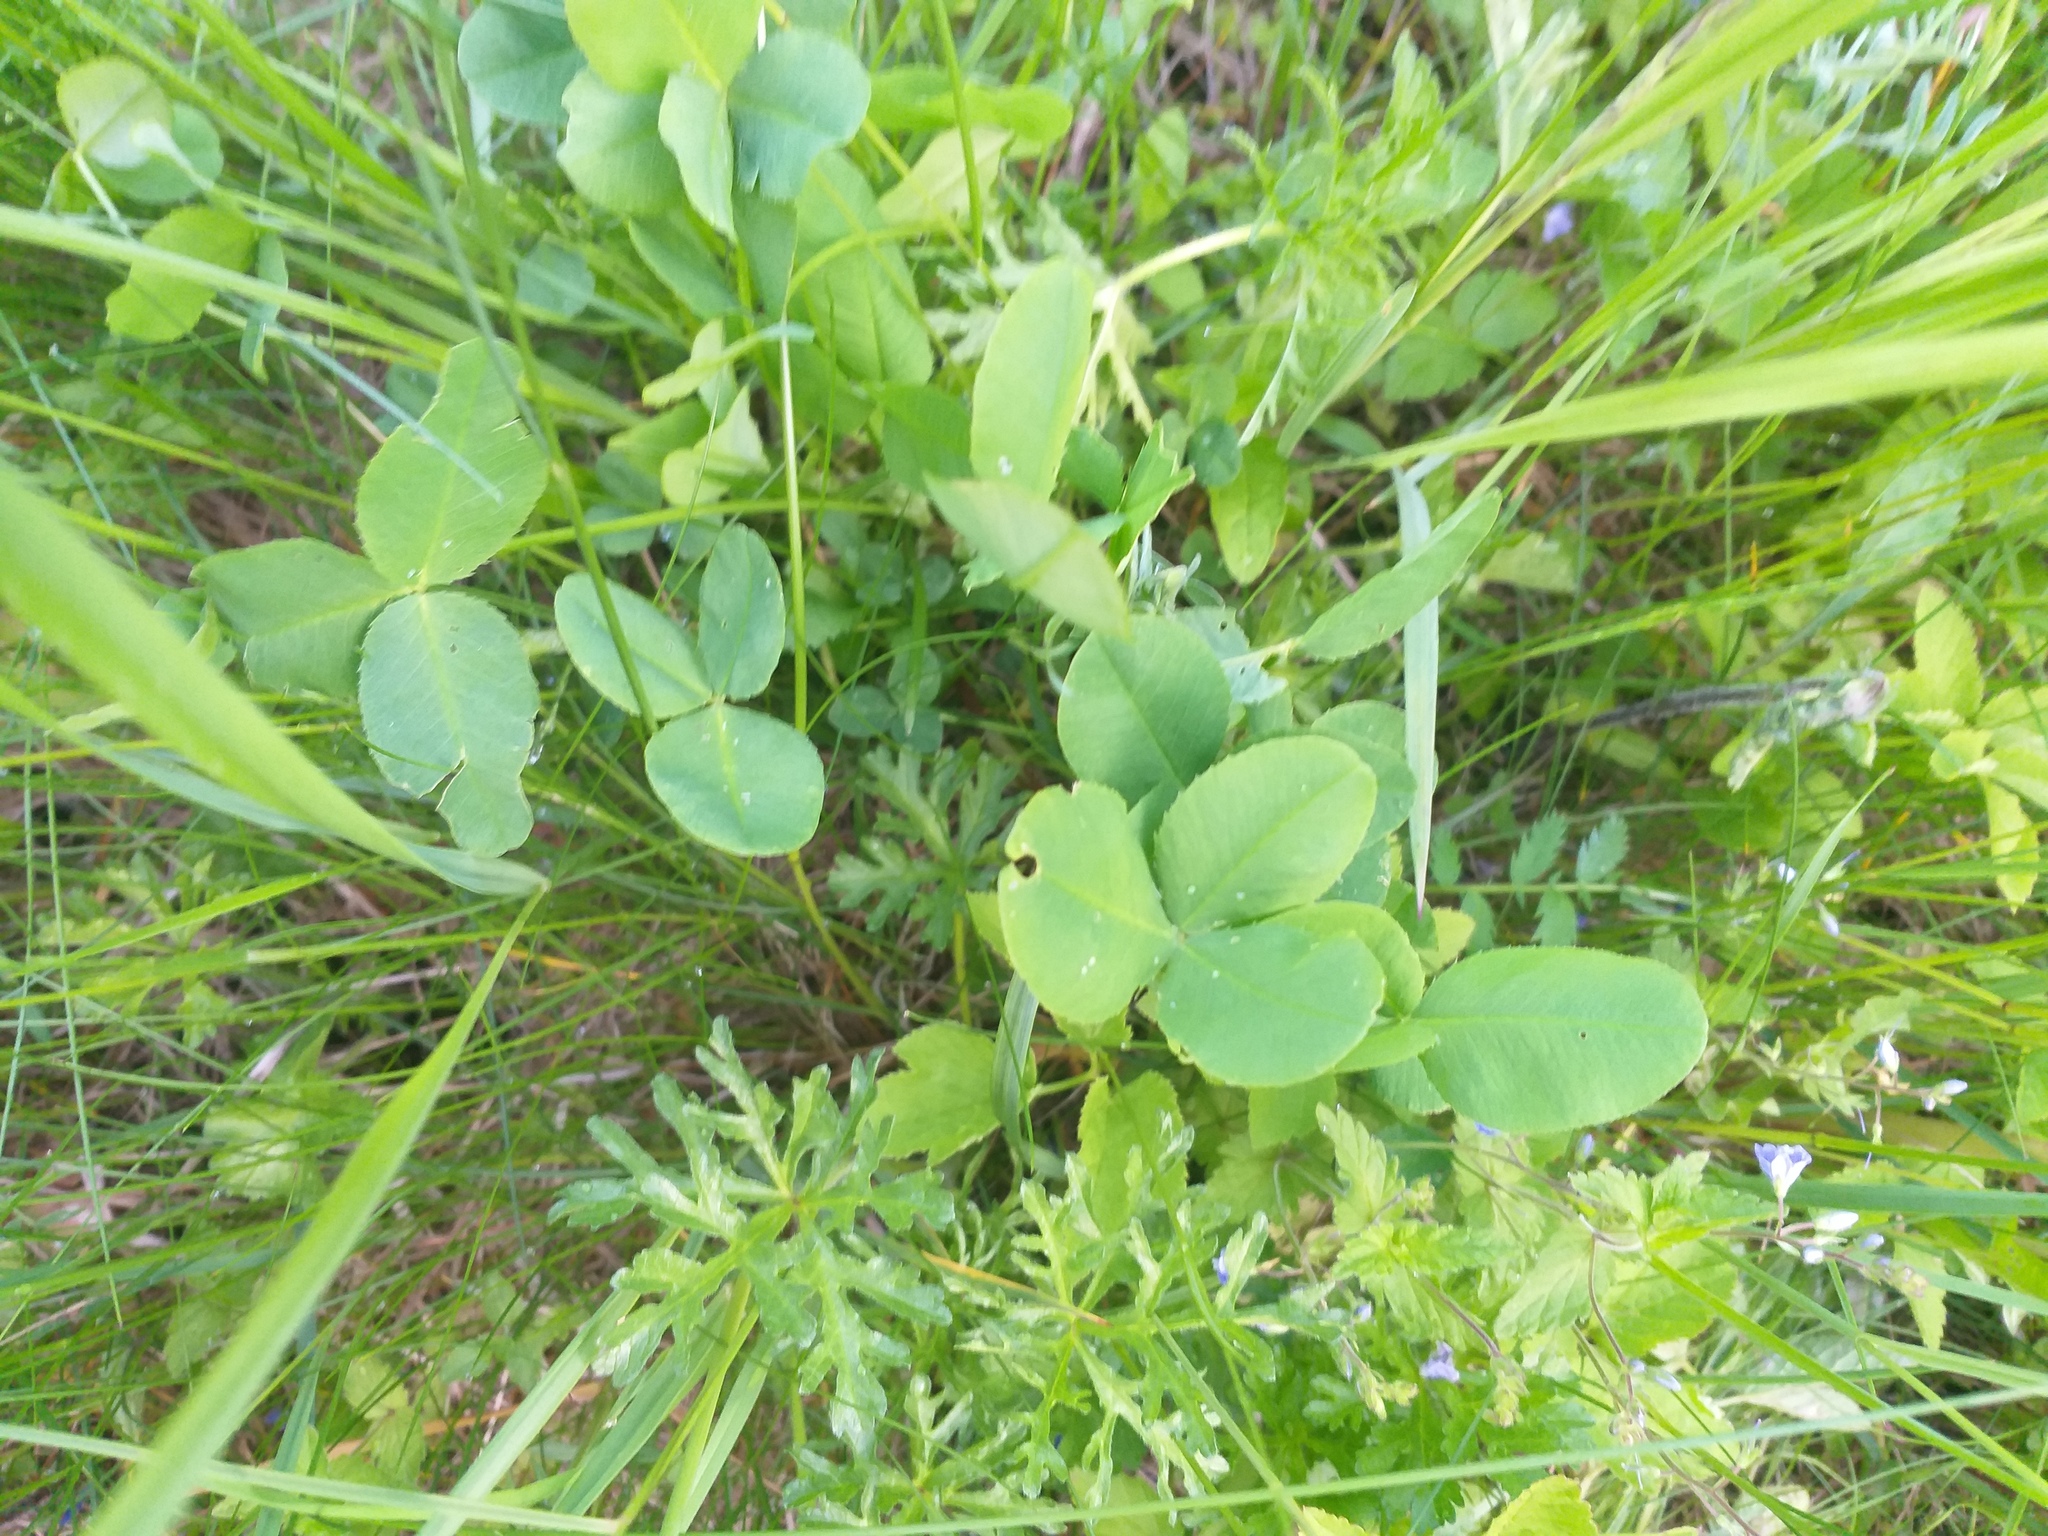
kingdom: Plantae
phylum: Tracheophyta
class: Magnoliopsida
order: Fabales
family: Fabaceae
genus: Trifolium
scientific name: Trifolium hybridum
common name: Alsike clover
